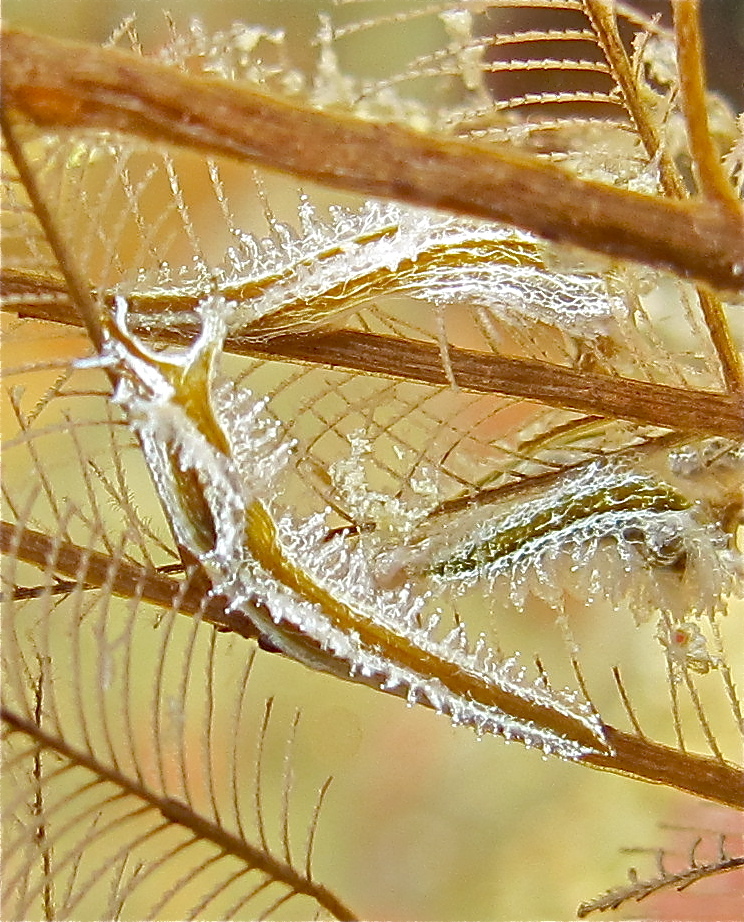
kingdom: Animalia
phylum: Mollusca
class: Gastropoda
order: Nudibranchia
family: Lomanotidae
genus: Lomanotus
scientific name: Lomanotus vermiformis
